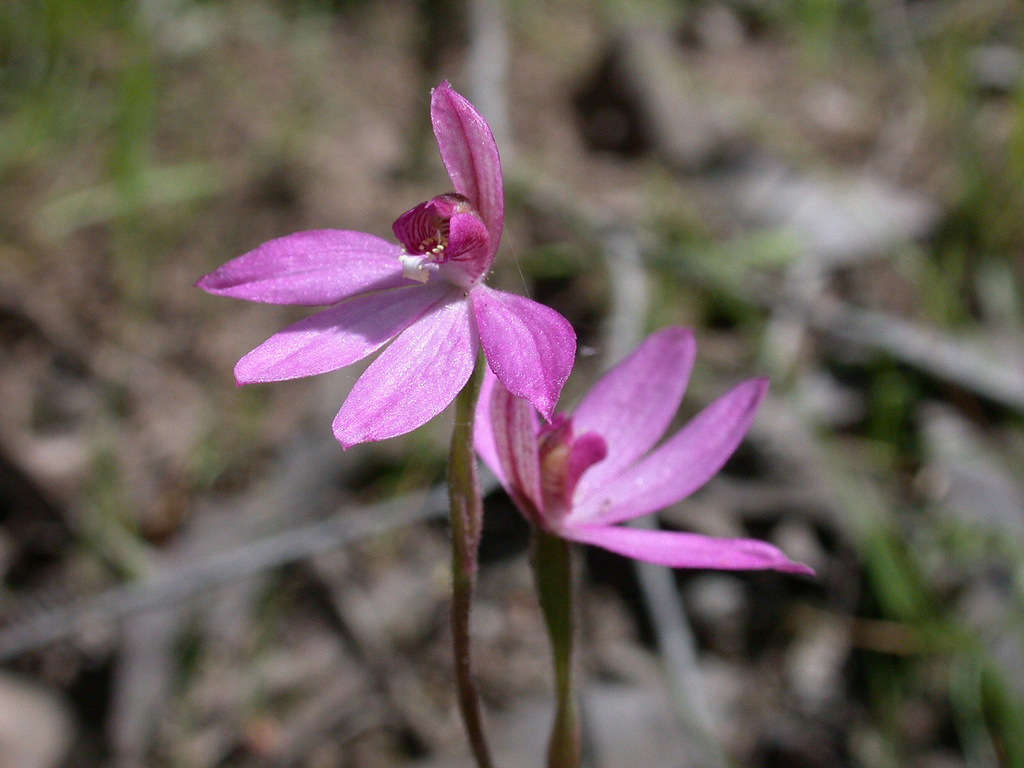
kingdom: Plantae
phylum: Tracheophyta
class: Liliopsida
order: Asparagales
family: Orchidaceae
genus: Caladenia
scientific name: Caladenia ornata
